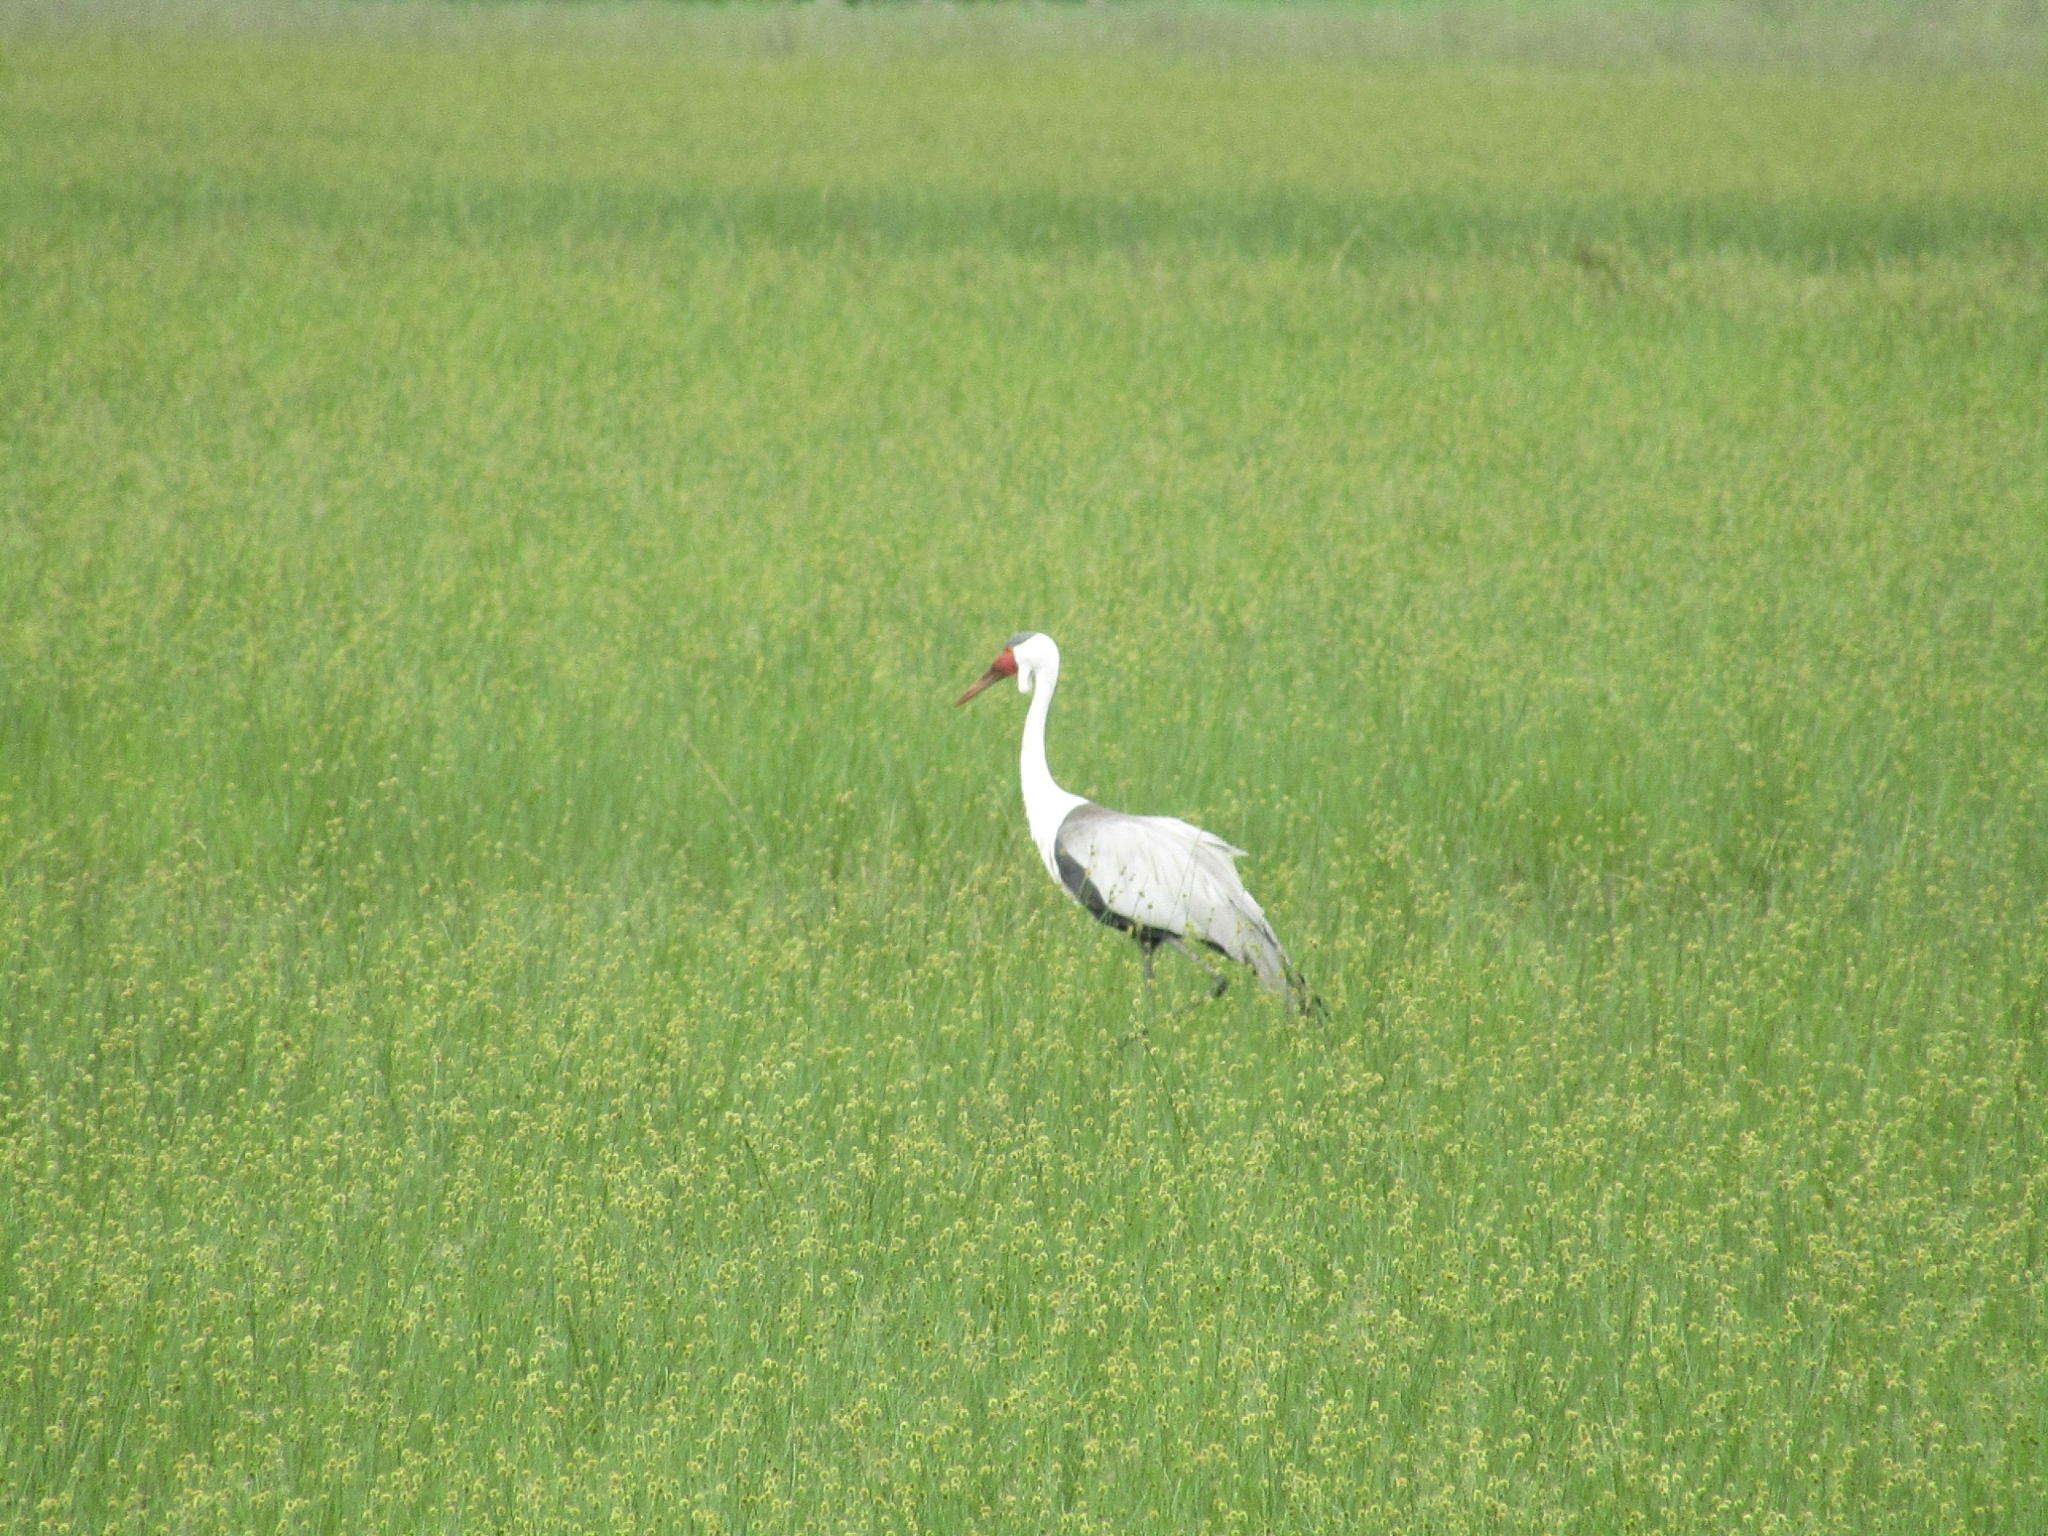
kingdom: Animalia
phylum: Chordata
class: Aves
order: Gruiformes
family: Gruidae
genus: Bugeranus
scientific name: Bugeranus carunculatus
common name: Wattled crane
